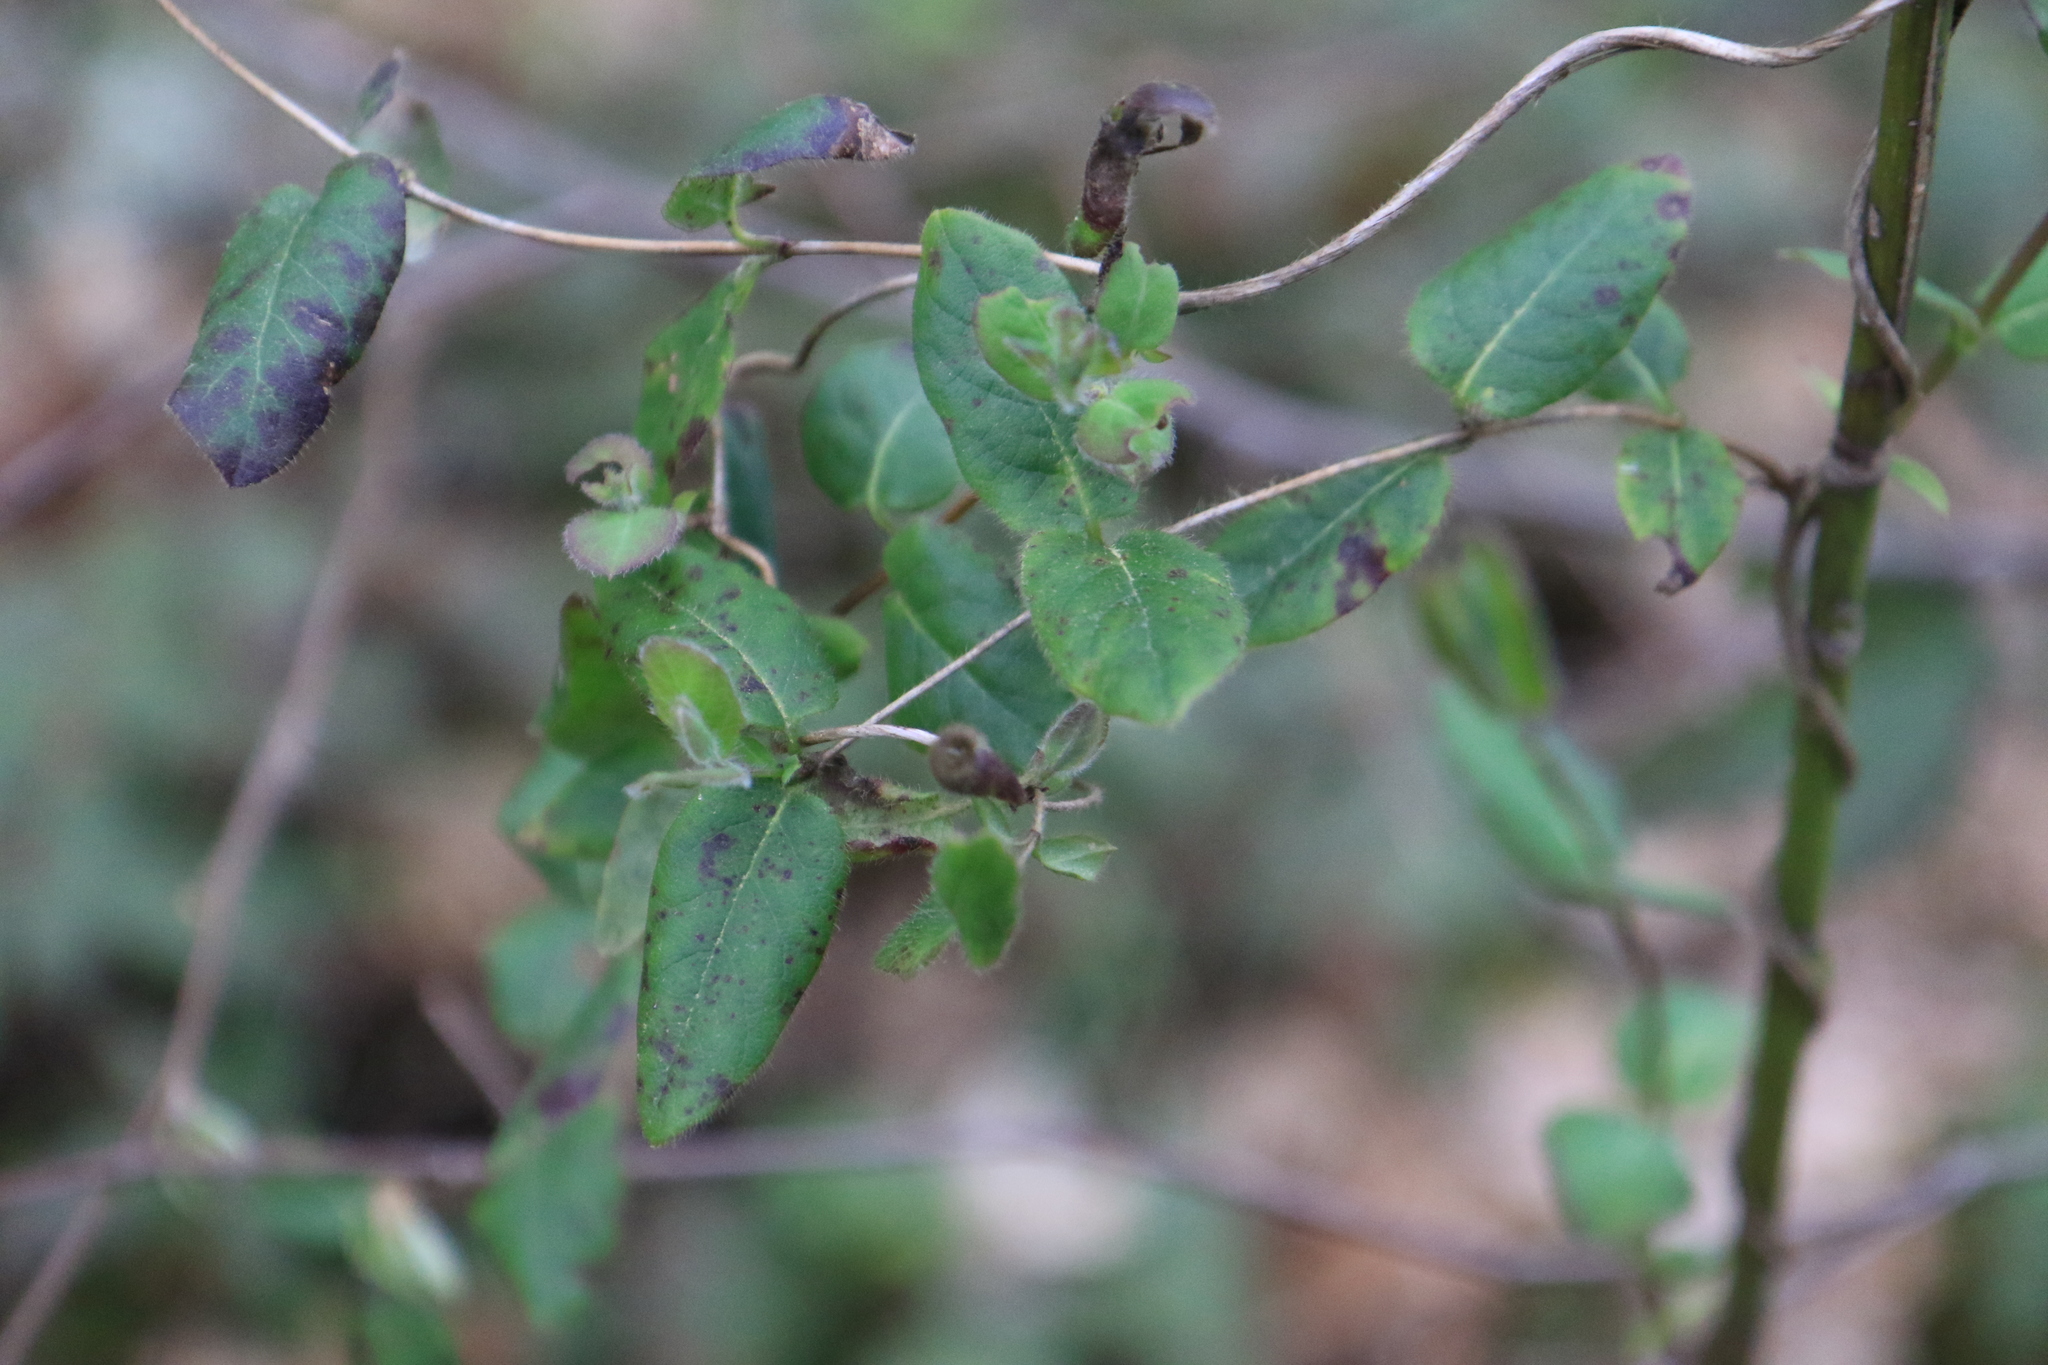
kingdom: Plantae
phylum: Tracheophyta
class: Magnoliopsida
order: Dipsacales
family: Caprifoliaceae
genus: Lonicera
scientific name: Lonicera hispidula
